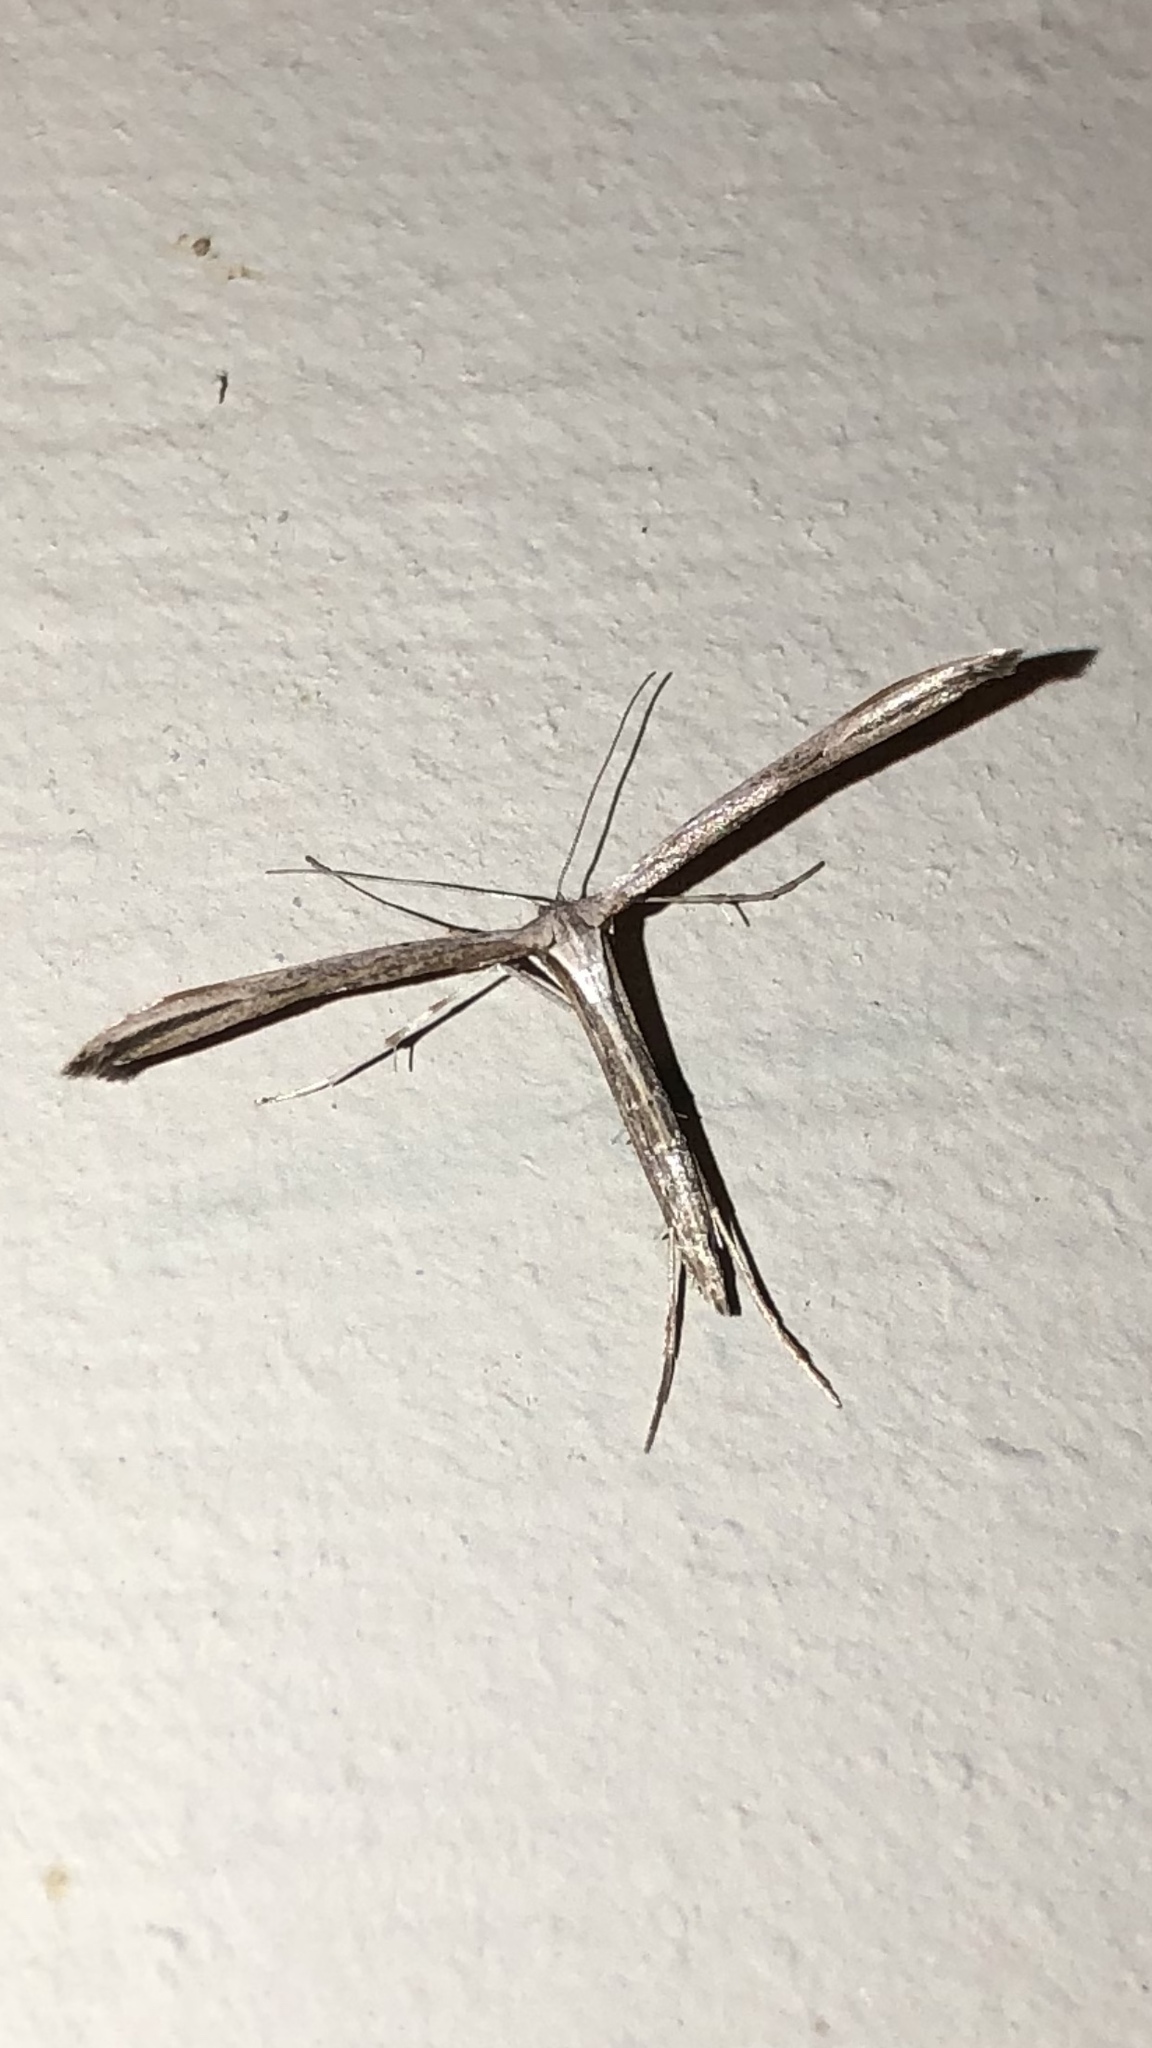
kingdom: Animalia
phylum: Arthropoda
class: Insecta
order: Lepidoptera
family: Pterophoridae
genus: Emmelina
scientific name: Emmelina monodactyla
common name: Common plume
